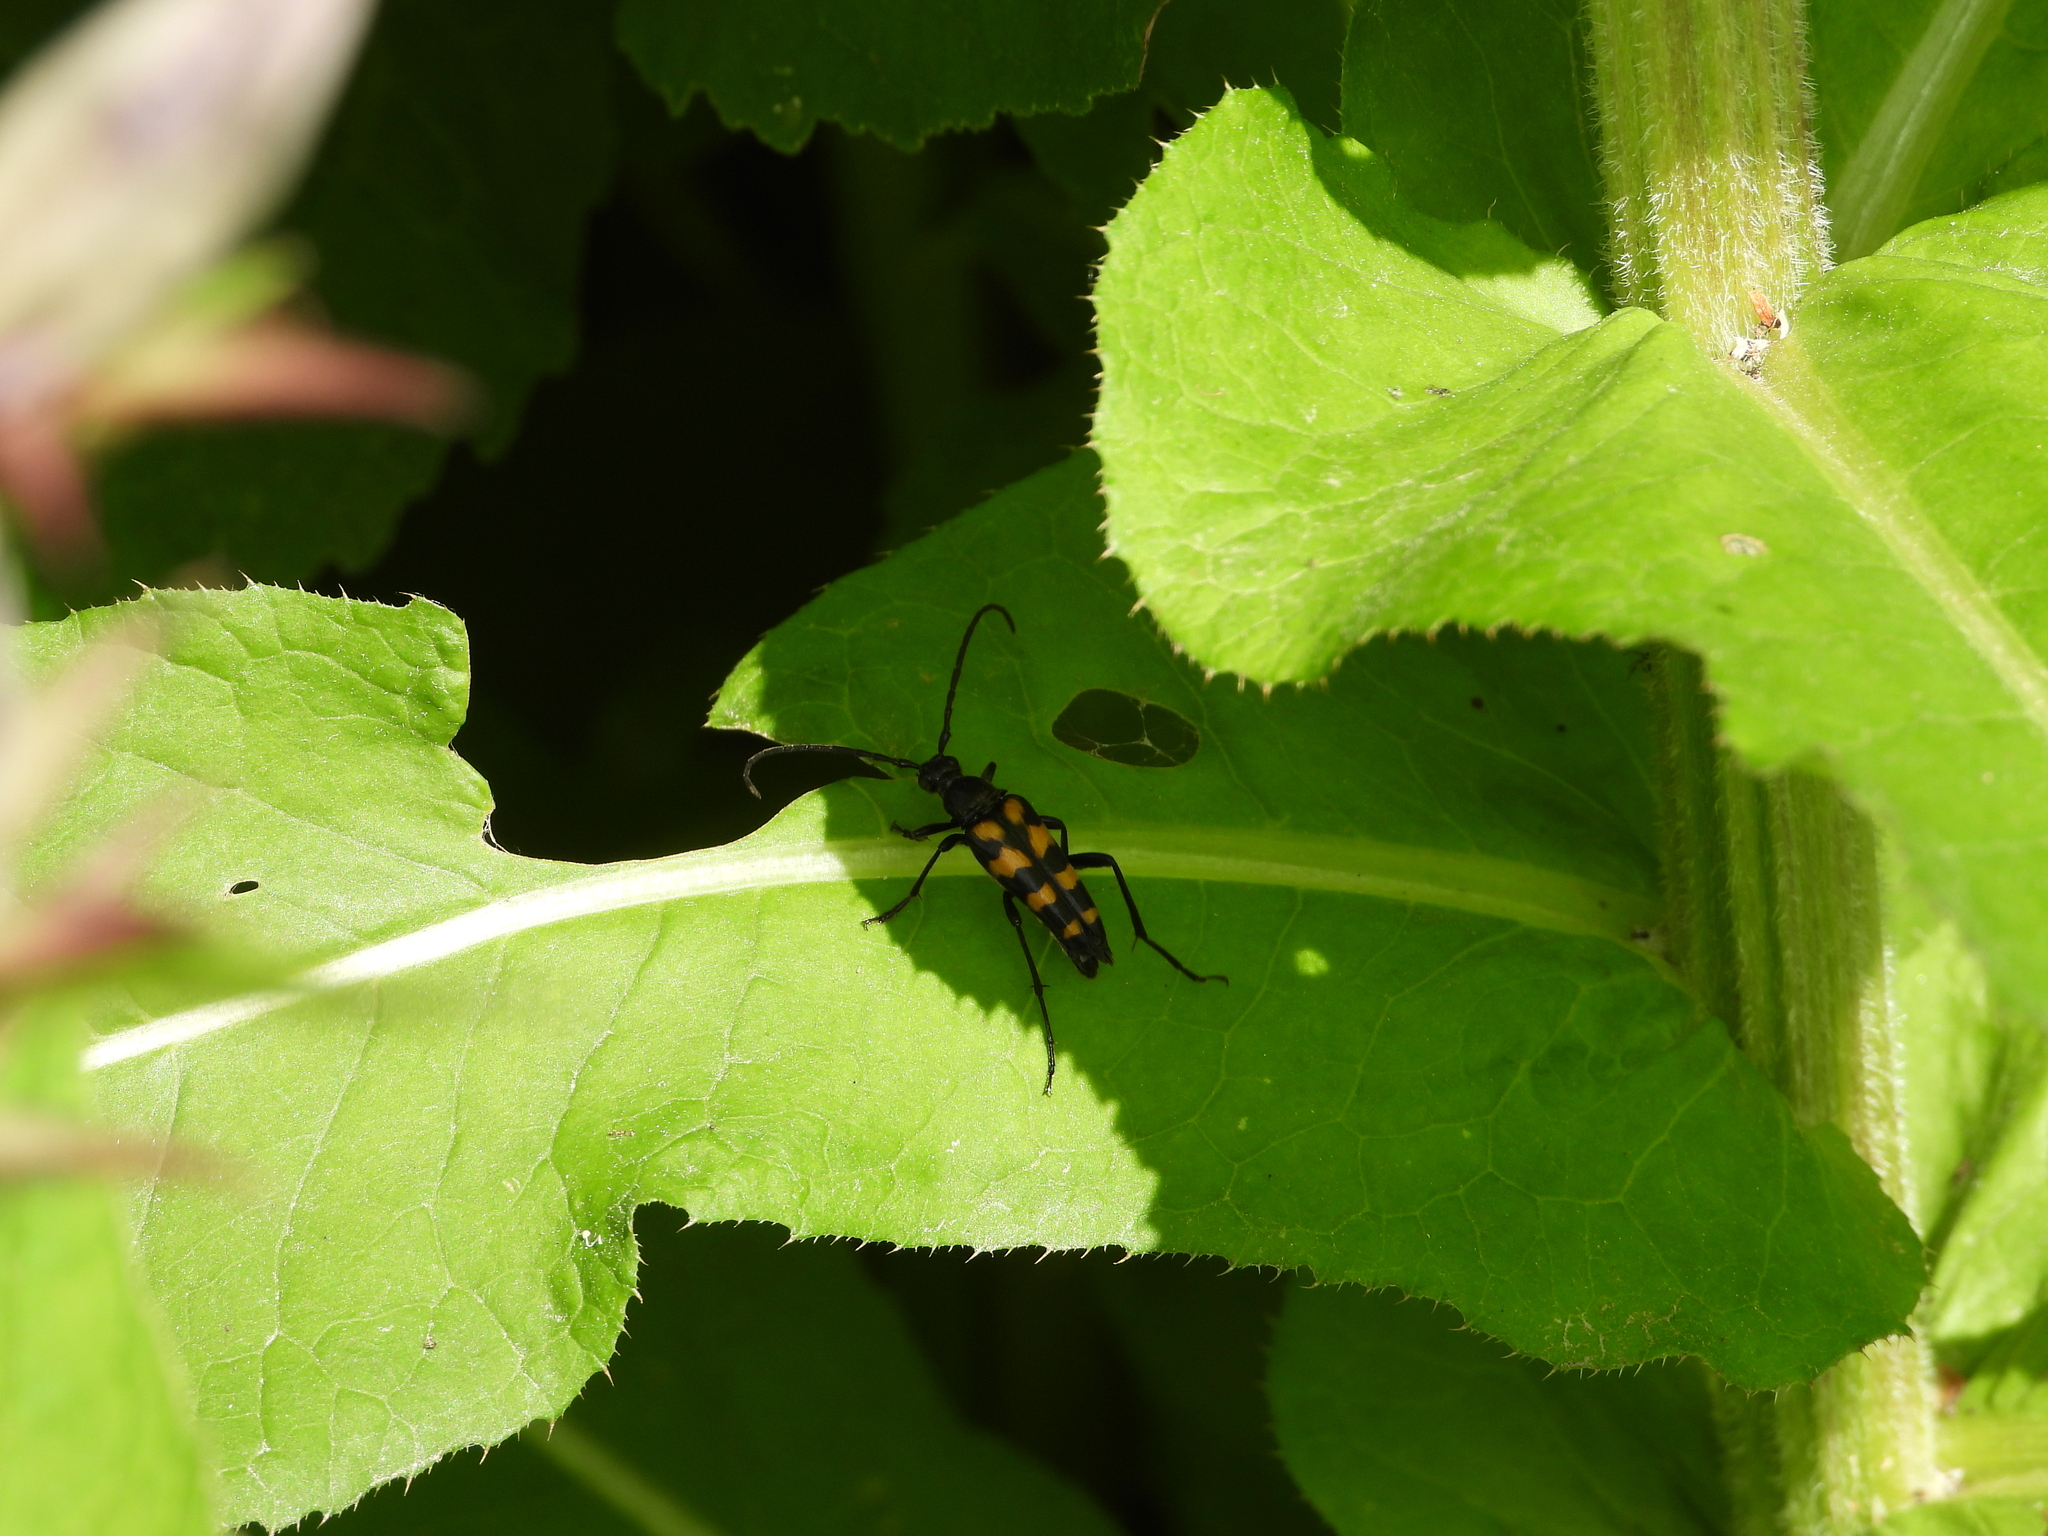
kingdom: Animalia
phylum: Arthropoda
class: Insecta
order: Coleoptera
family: Cerambycidae
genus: Leptura
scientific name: Leptura quadrifasciata
